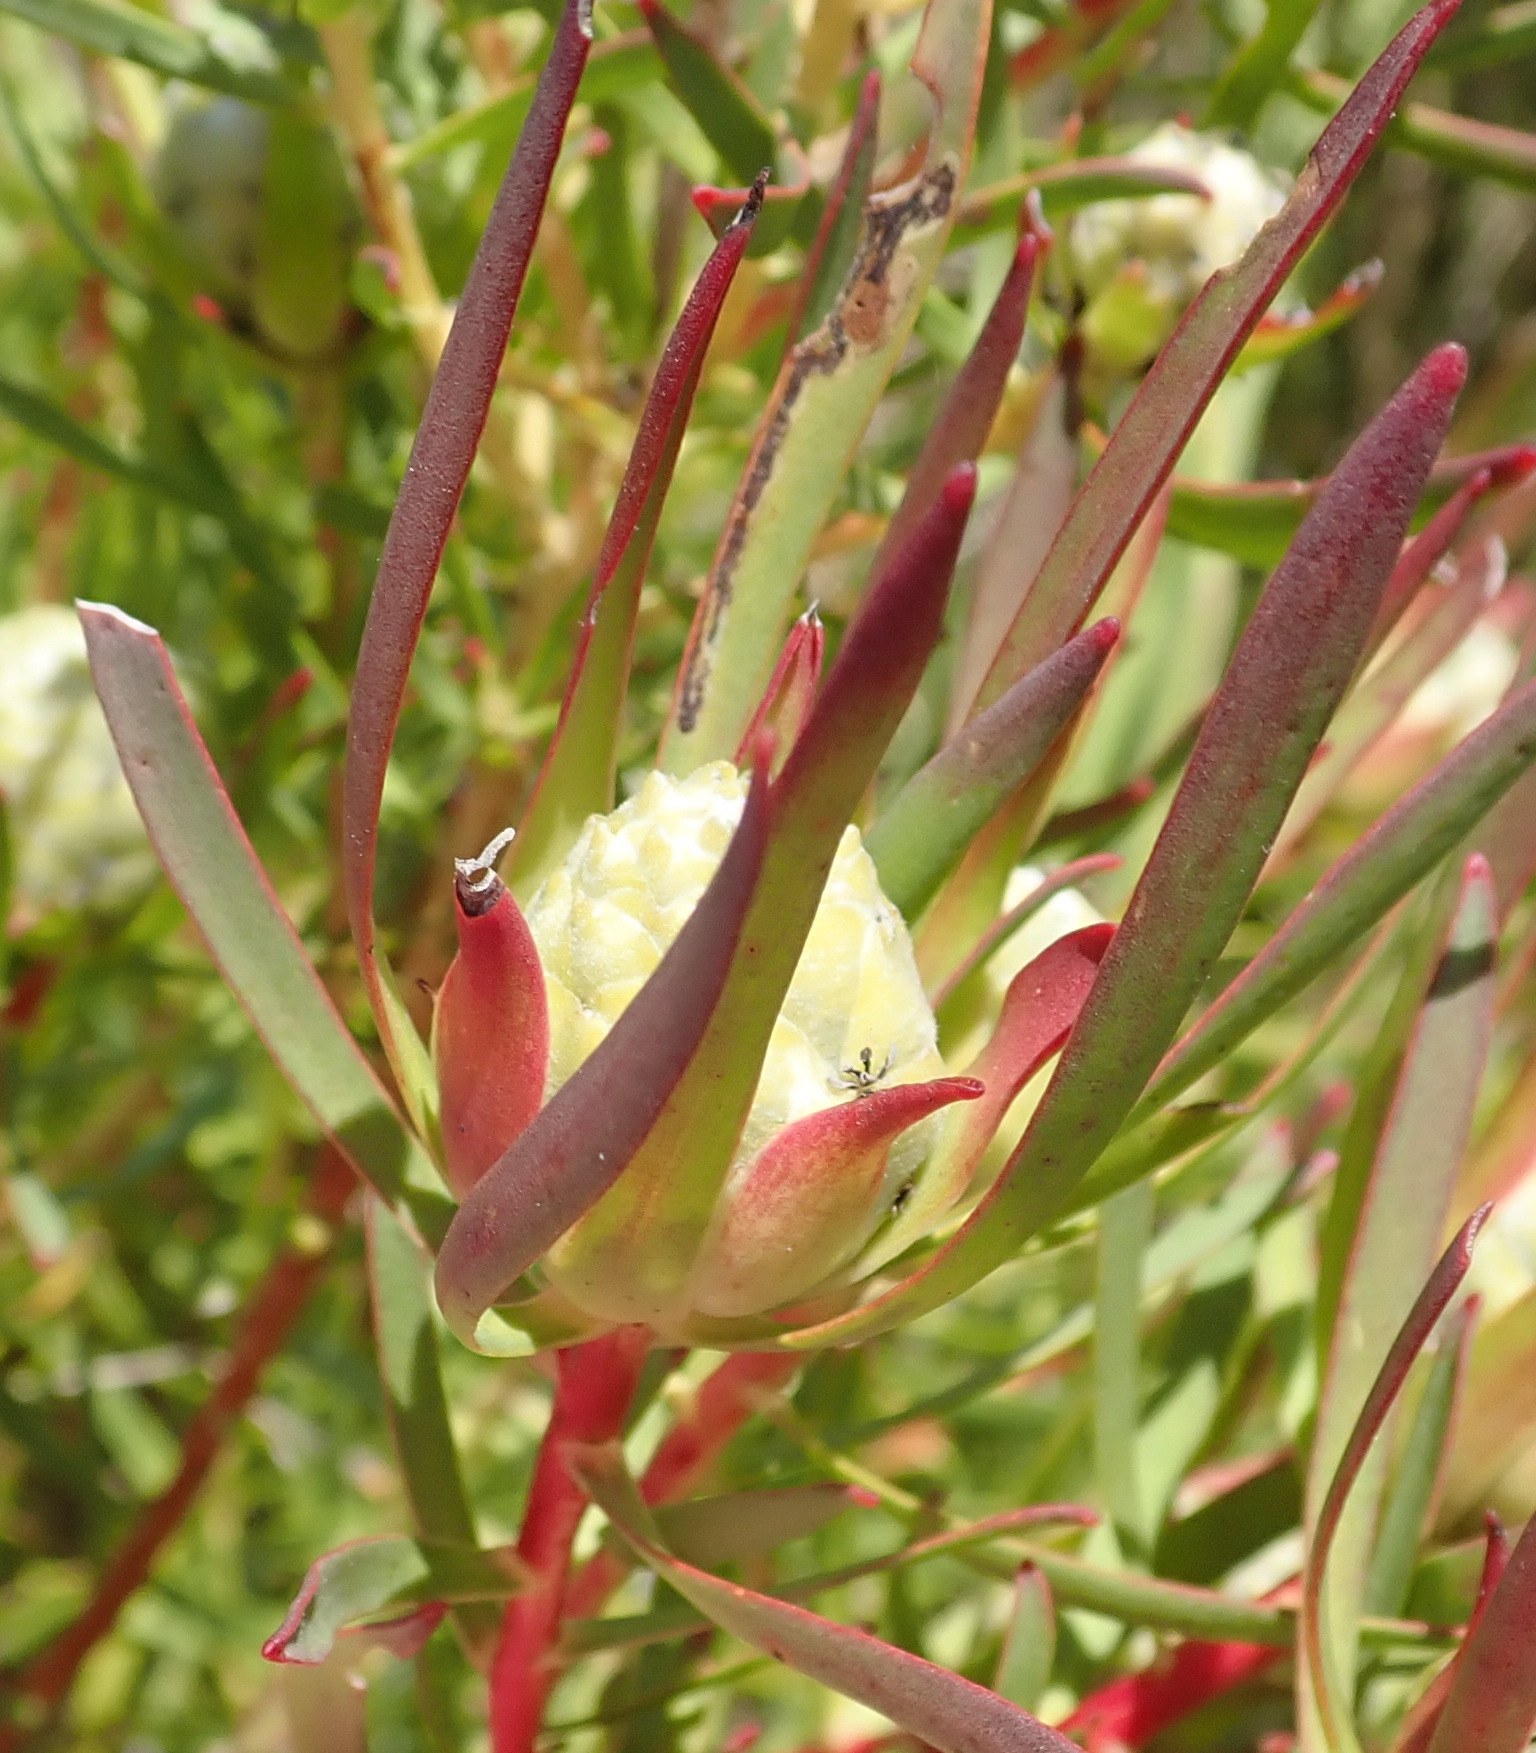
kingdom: Plantae
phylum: Tracheophyta
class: Magnoliopsida
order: Proteales
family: Proteaceae
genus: Leucadendron
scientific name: Leucadendron salignum
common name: Common sunshine conebush
